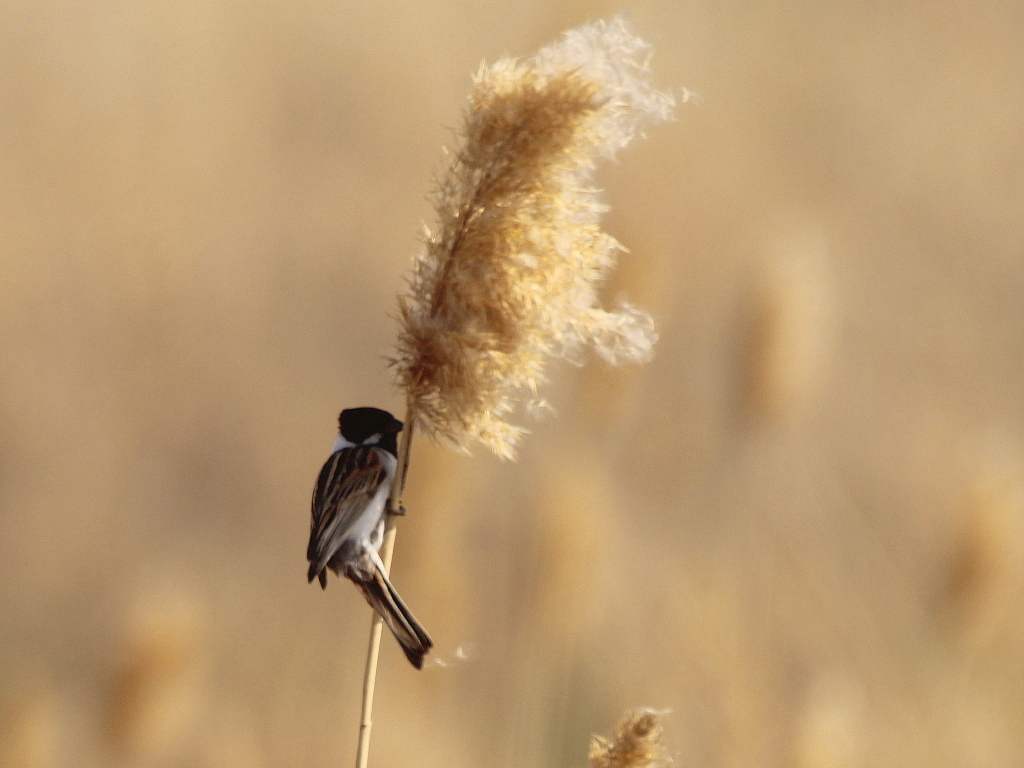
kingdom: Animalia
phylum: Chordata
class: Aves
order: Passeriformes
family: Emberizidae
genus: Emberiza
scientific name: Emberiza schoeniclus
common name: Reed bunting
